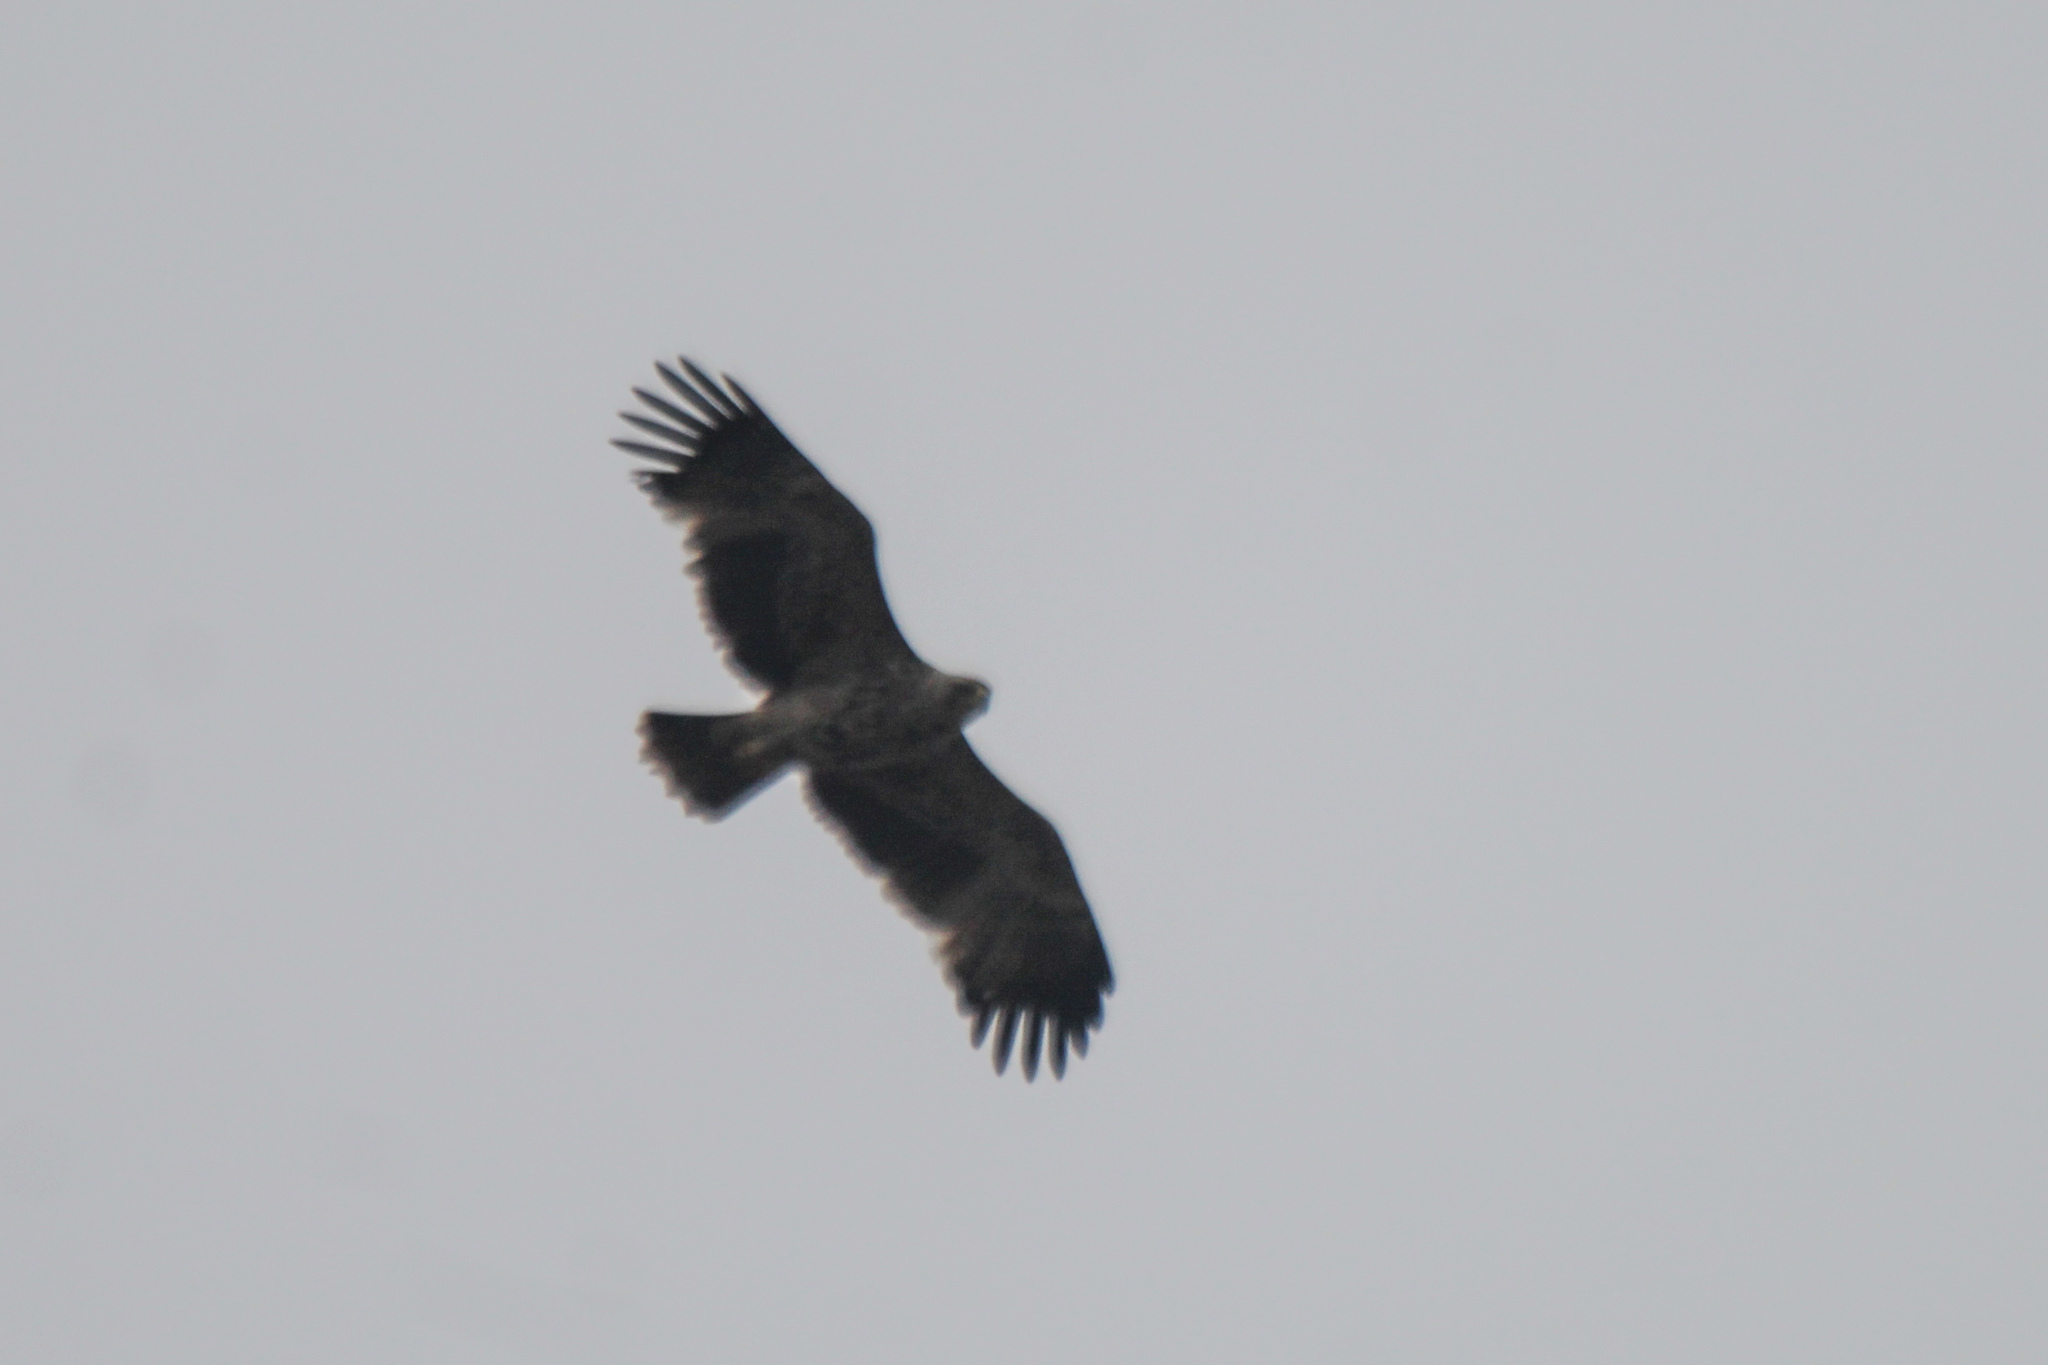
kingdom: Animalia
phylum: Chordata
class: Aves
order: Accipitriformes
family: Accipitridae
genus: Aquila
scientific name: Aquila heliaca
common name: Eastern imperial eagle
